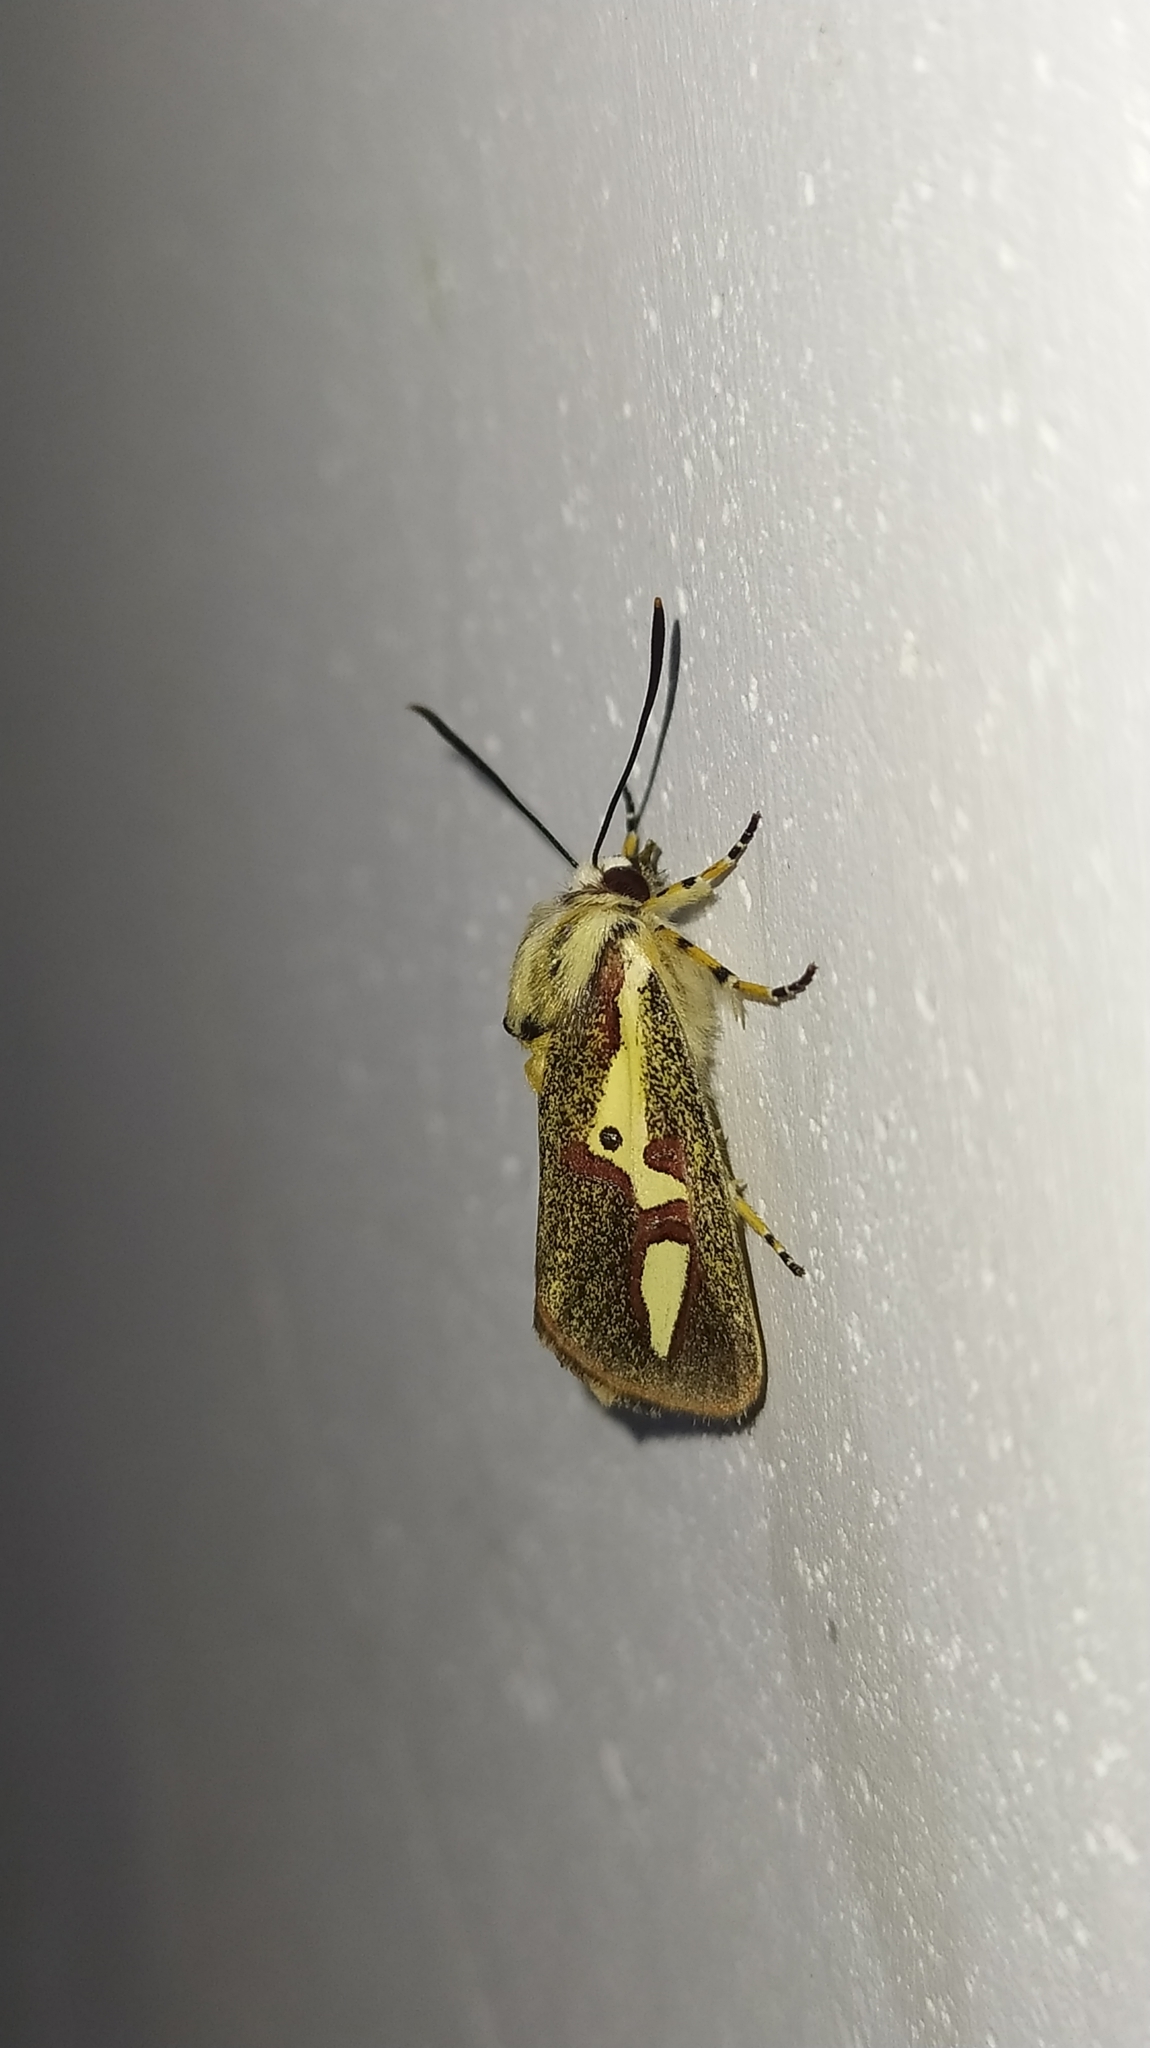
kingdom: Animalia
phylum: Arthropoda
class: Insecta
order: Lepidoptera
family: Noctuidae
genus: Aegocera
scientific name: Aegocera venulia
